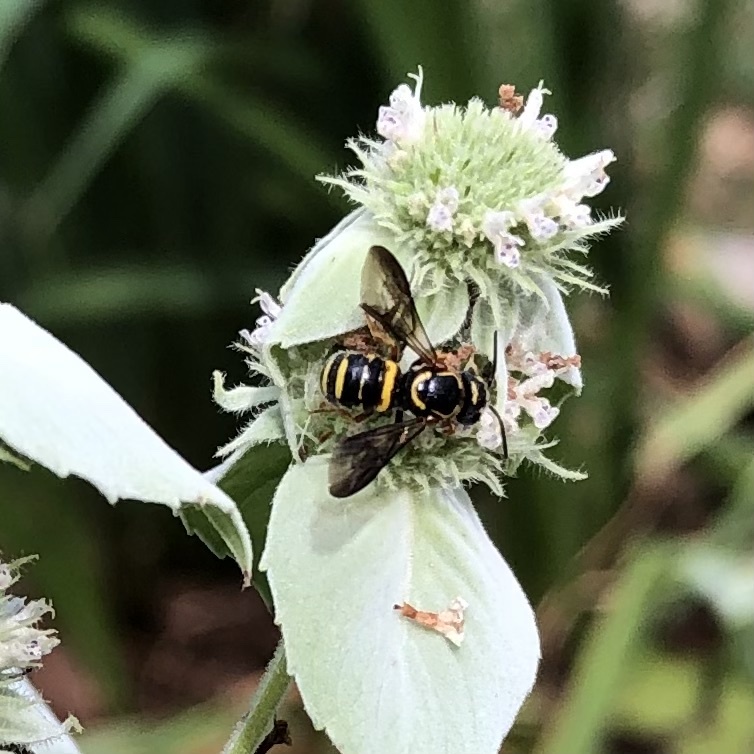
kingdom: Animalia
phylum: Arthropoda
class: Insecta
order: Hymenoptera
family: Megachilidae
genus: Stelis
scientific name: Stelis louisae
